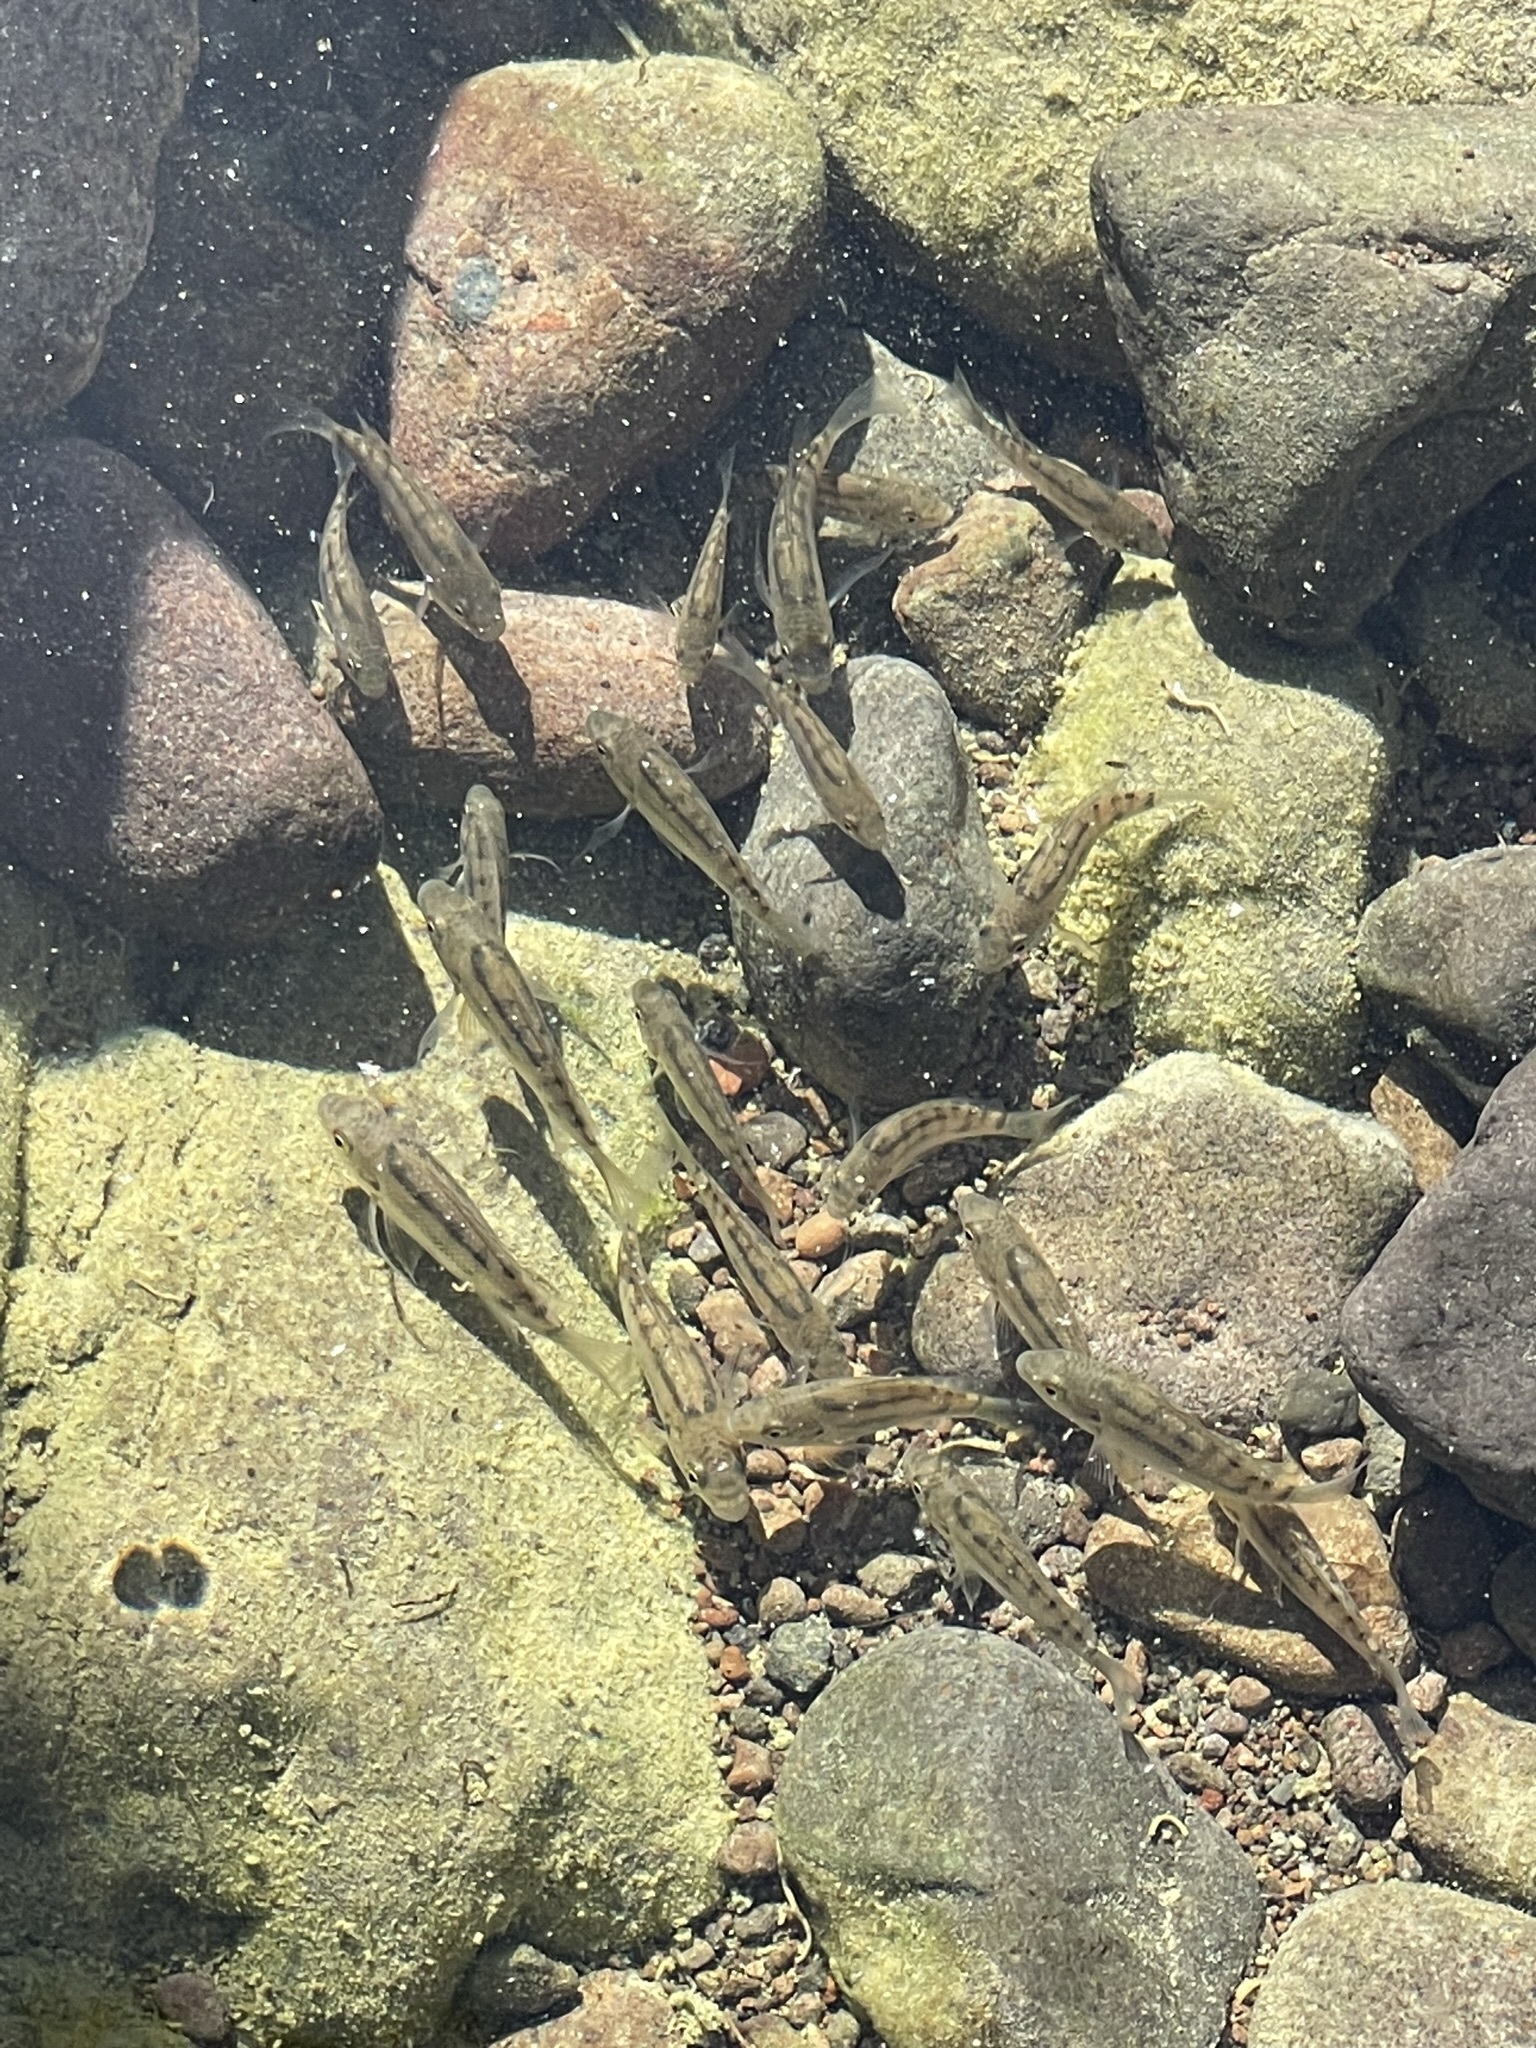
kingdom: Animalia
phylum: Chordata
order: Perciformes
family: Cichlidae
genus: Oreochromis
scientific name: Oreochromis mossambicus
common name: Mozambique tilapia
